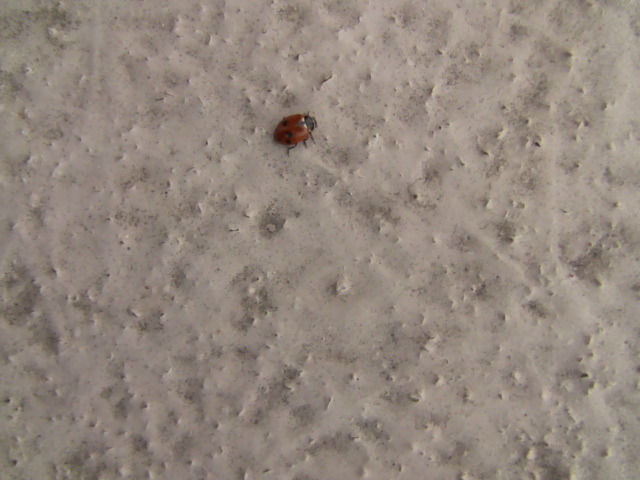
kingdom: Animalia
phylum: Arthropoda
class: Insecta
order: Coleoptera
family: Coccinellidae
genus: Hippodamia
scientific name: Hippodamia variegata
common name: Ladybird beetle
